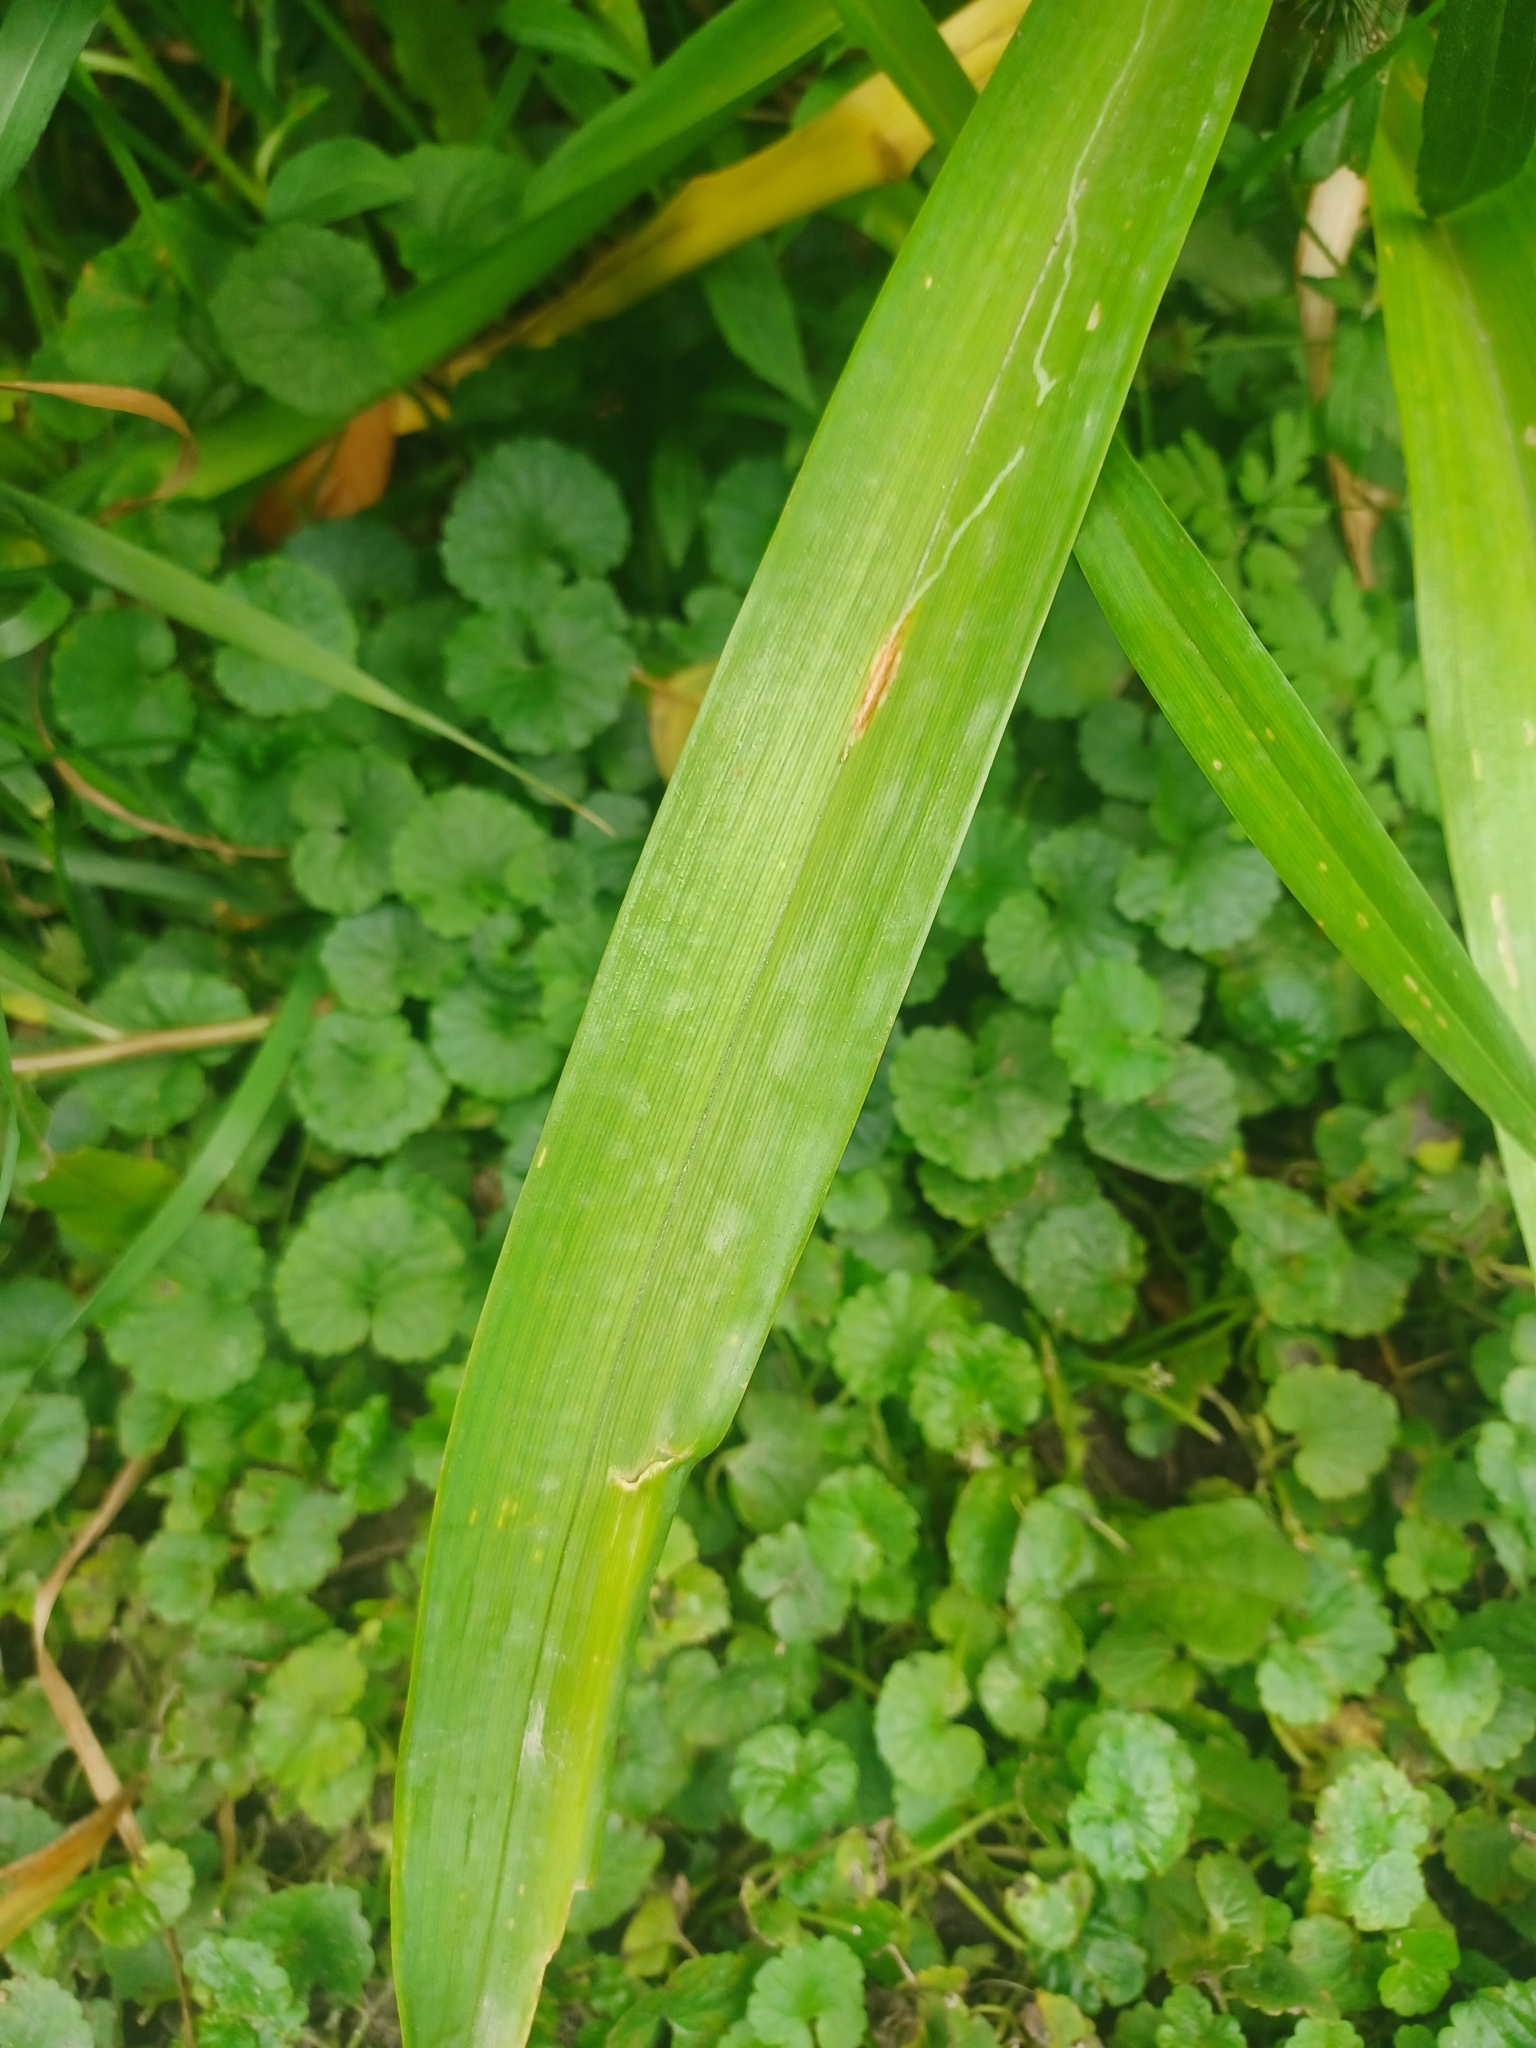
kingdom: Plantae
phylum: Tracheophyta
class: Liliopsida
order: Asparagales
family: Asphodelaceae
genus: Hemerocallis
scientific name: Hemerocallis fulva
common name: Orange day-lily
